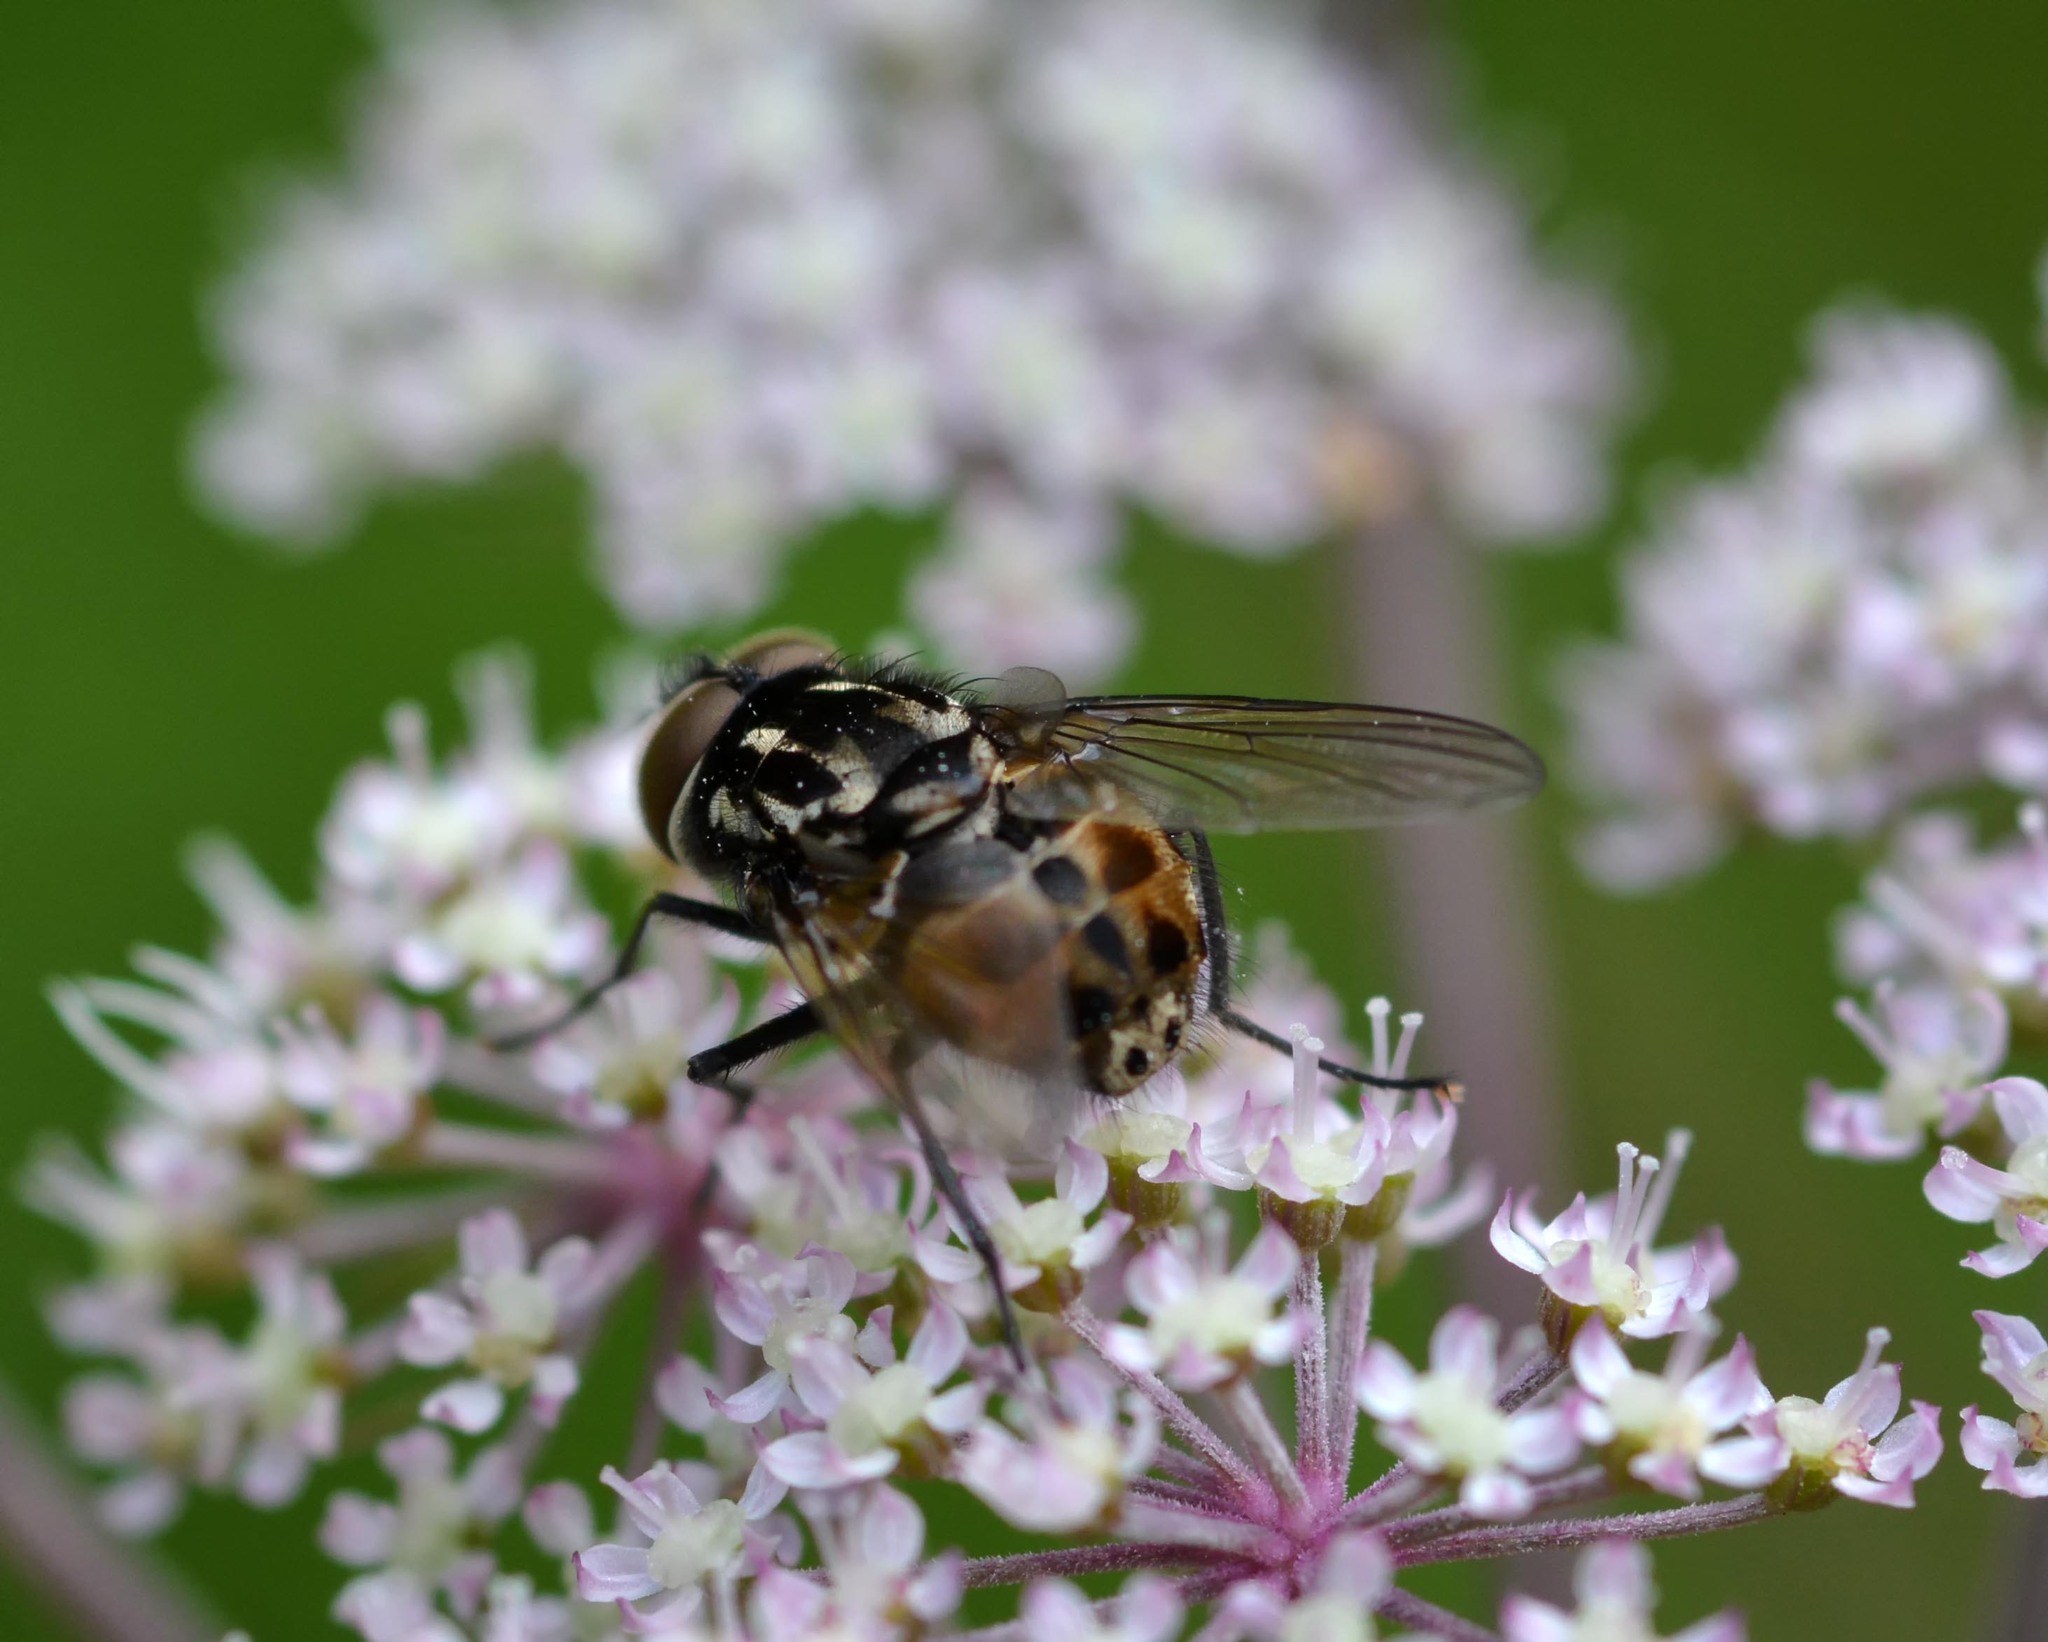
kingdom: Animalia
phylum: Arthropoda
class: Insecta
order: Diptera
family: Muscidae
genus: Graphomya
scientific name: Graphomya maculata
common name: Muscid fly
